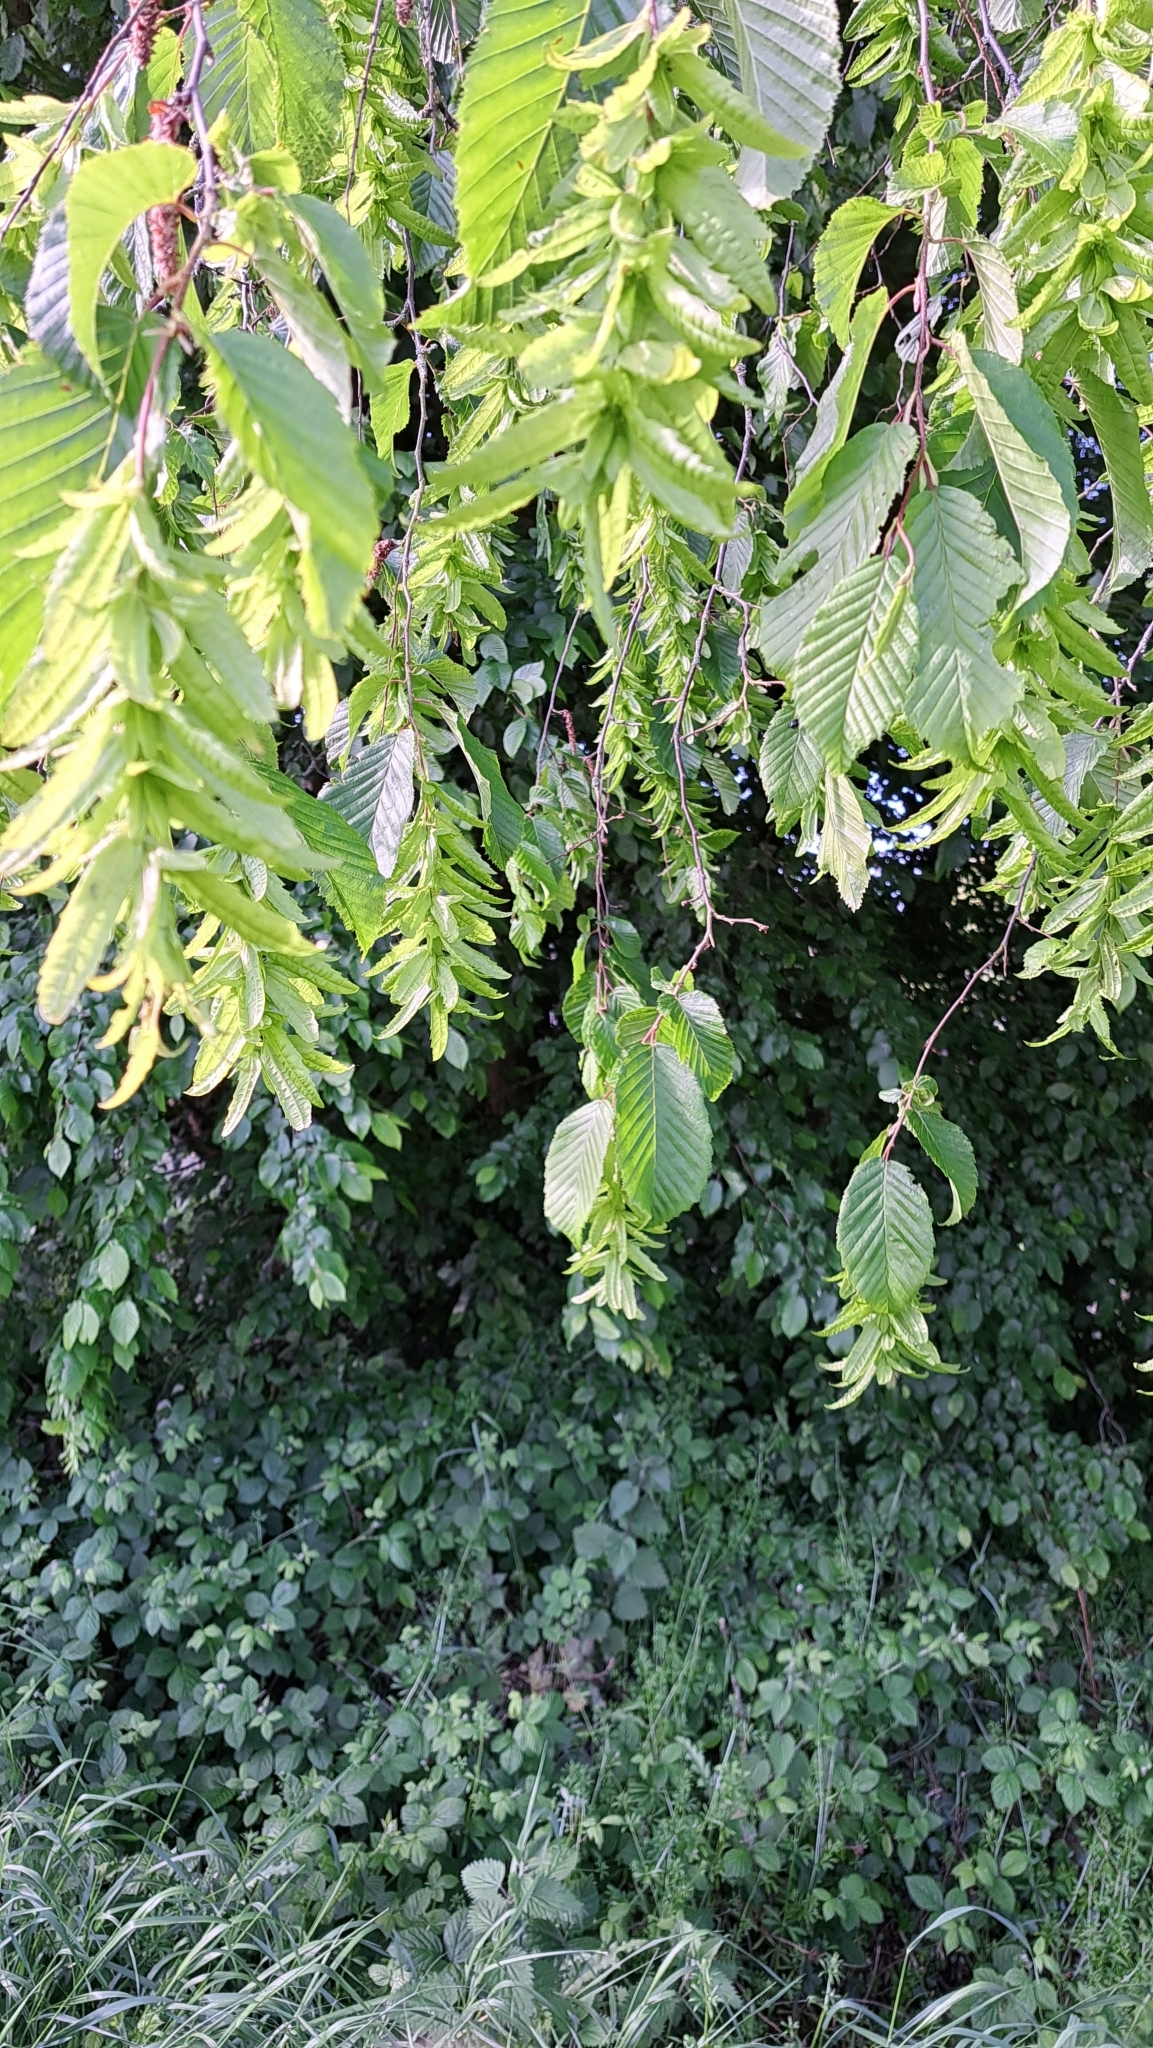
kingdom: Plantae
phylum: Tracheophyta
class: Magnoliopsida
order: Fagales
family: Betulaceae
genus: Carpinus
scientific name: Carpinus betulus
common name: Hornbeam
